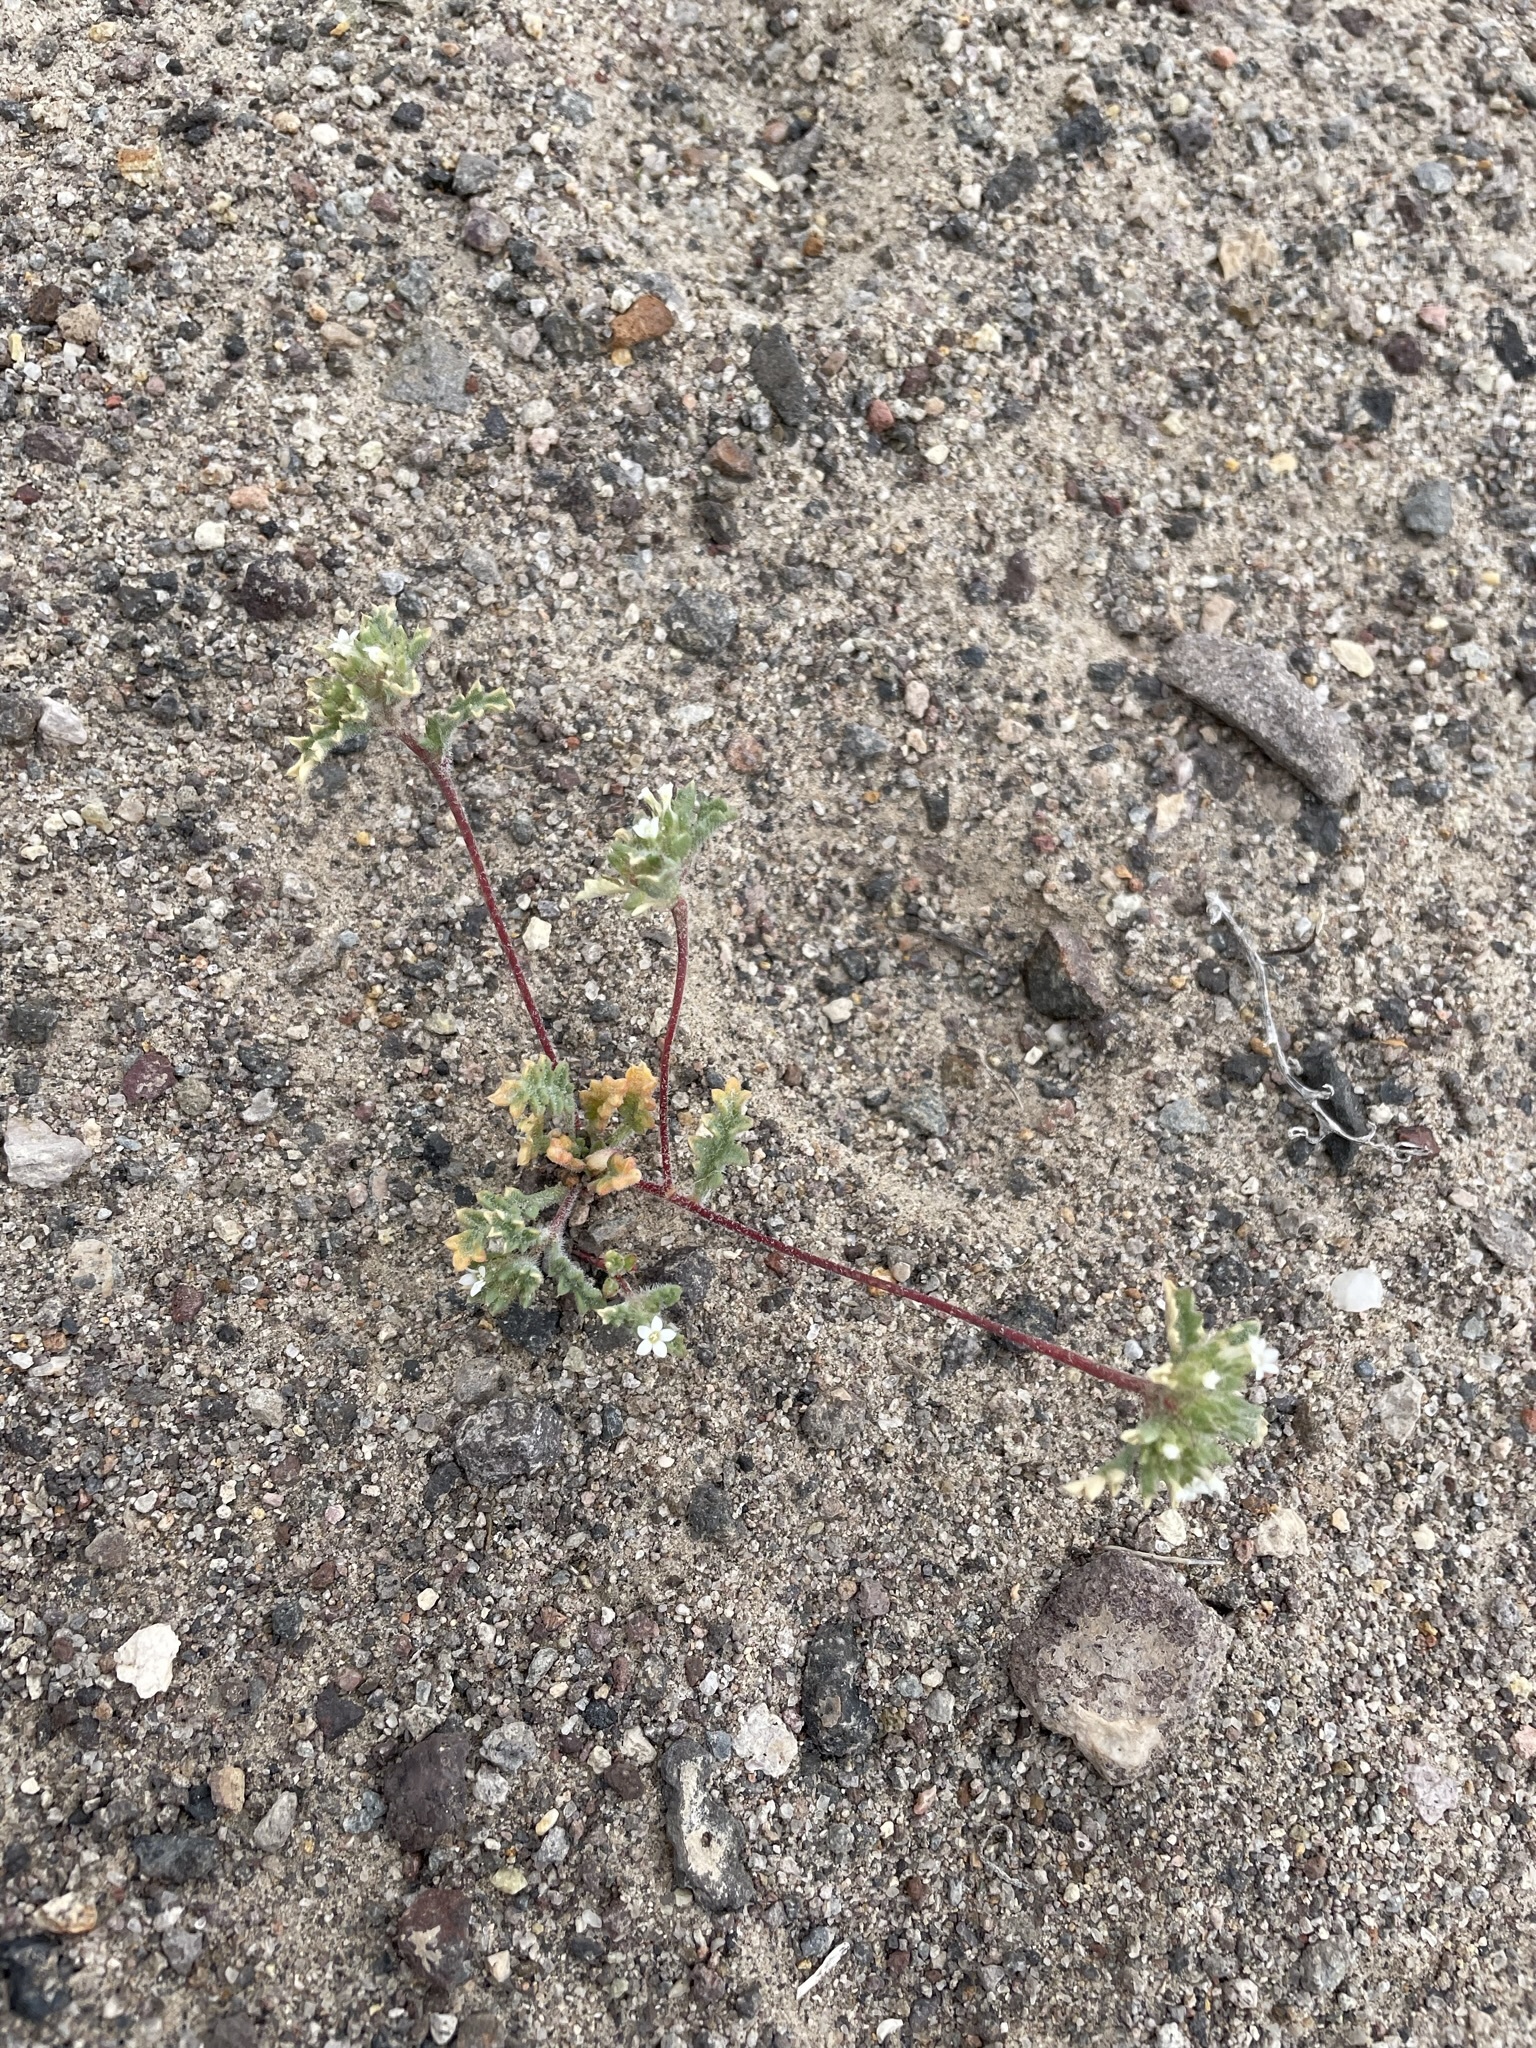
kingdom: Plantae
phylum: Tracheophyta
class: Magnoliopsida
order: Ericales
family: Polemoniaceae
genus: Ipomopsis
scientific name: Ipomopsis polycladon
